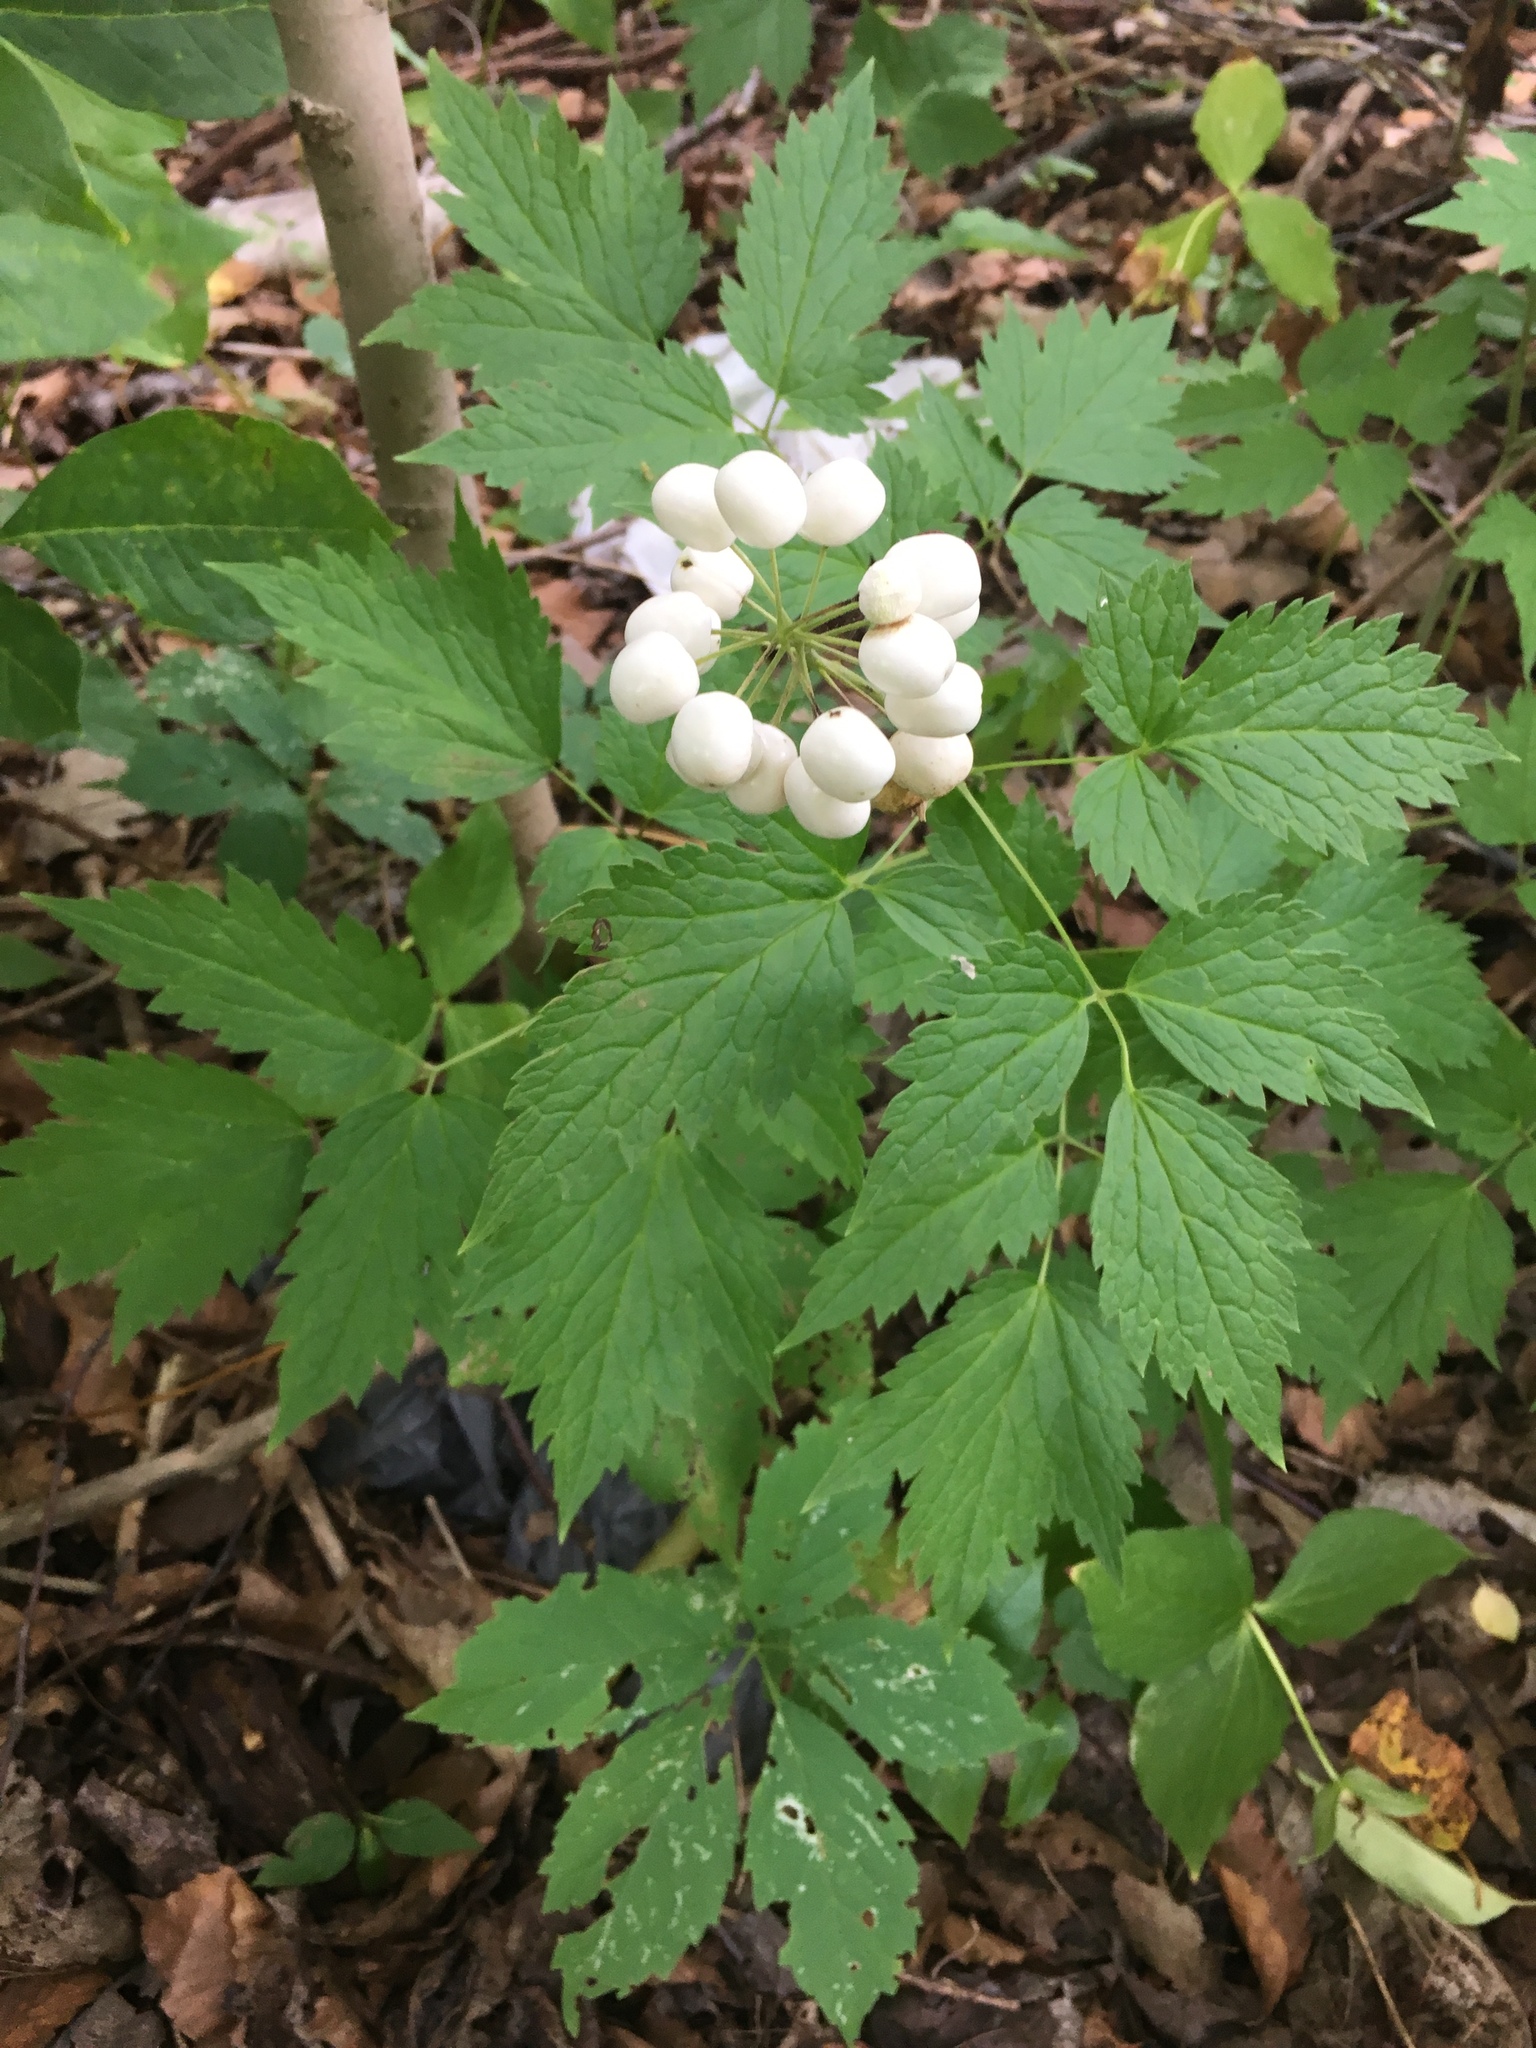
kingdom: Plantae
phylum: Tracheophyta
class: Magnoliopsida
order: Ranunculales
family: Ranunculaceae
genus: Actaea
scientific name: Actaea rubra
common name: Red baneberry
